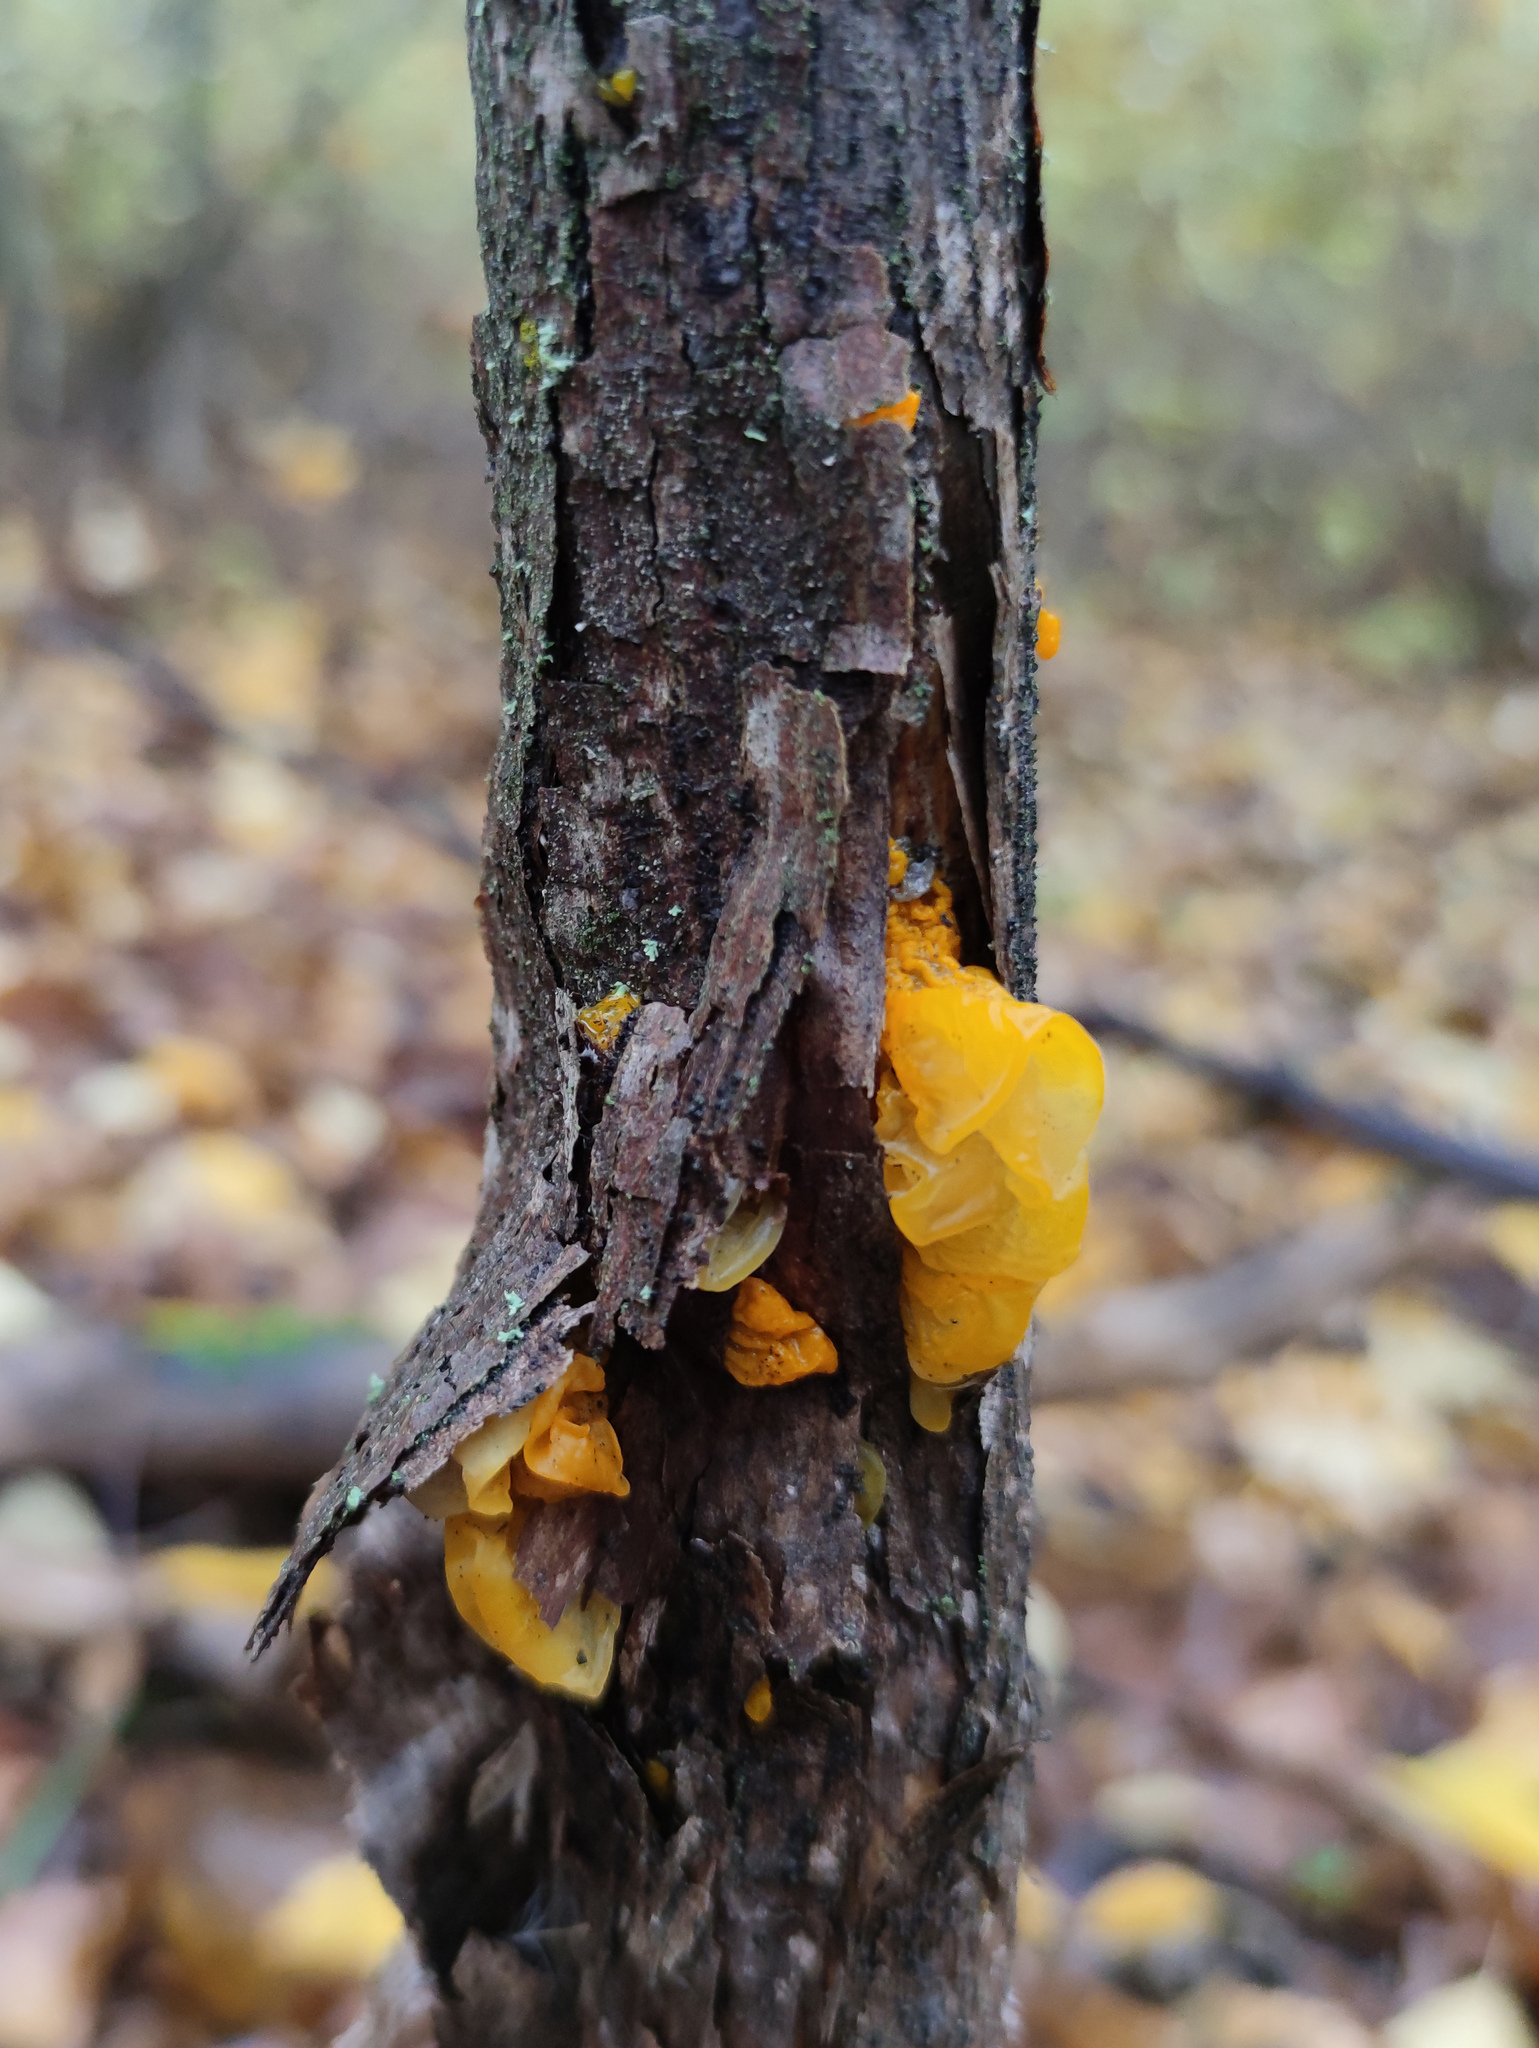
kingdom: Fungi
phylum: Basidiomycota
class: Tremellomycetes
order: Tremellales
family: Tremellaceae
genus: Tremella
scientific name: Tremella mesenterica
